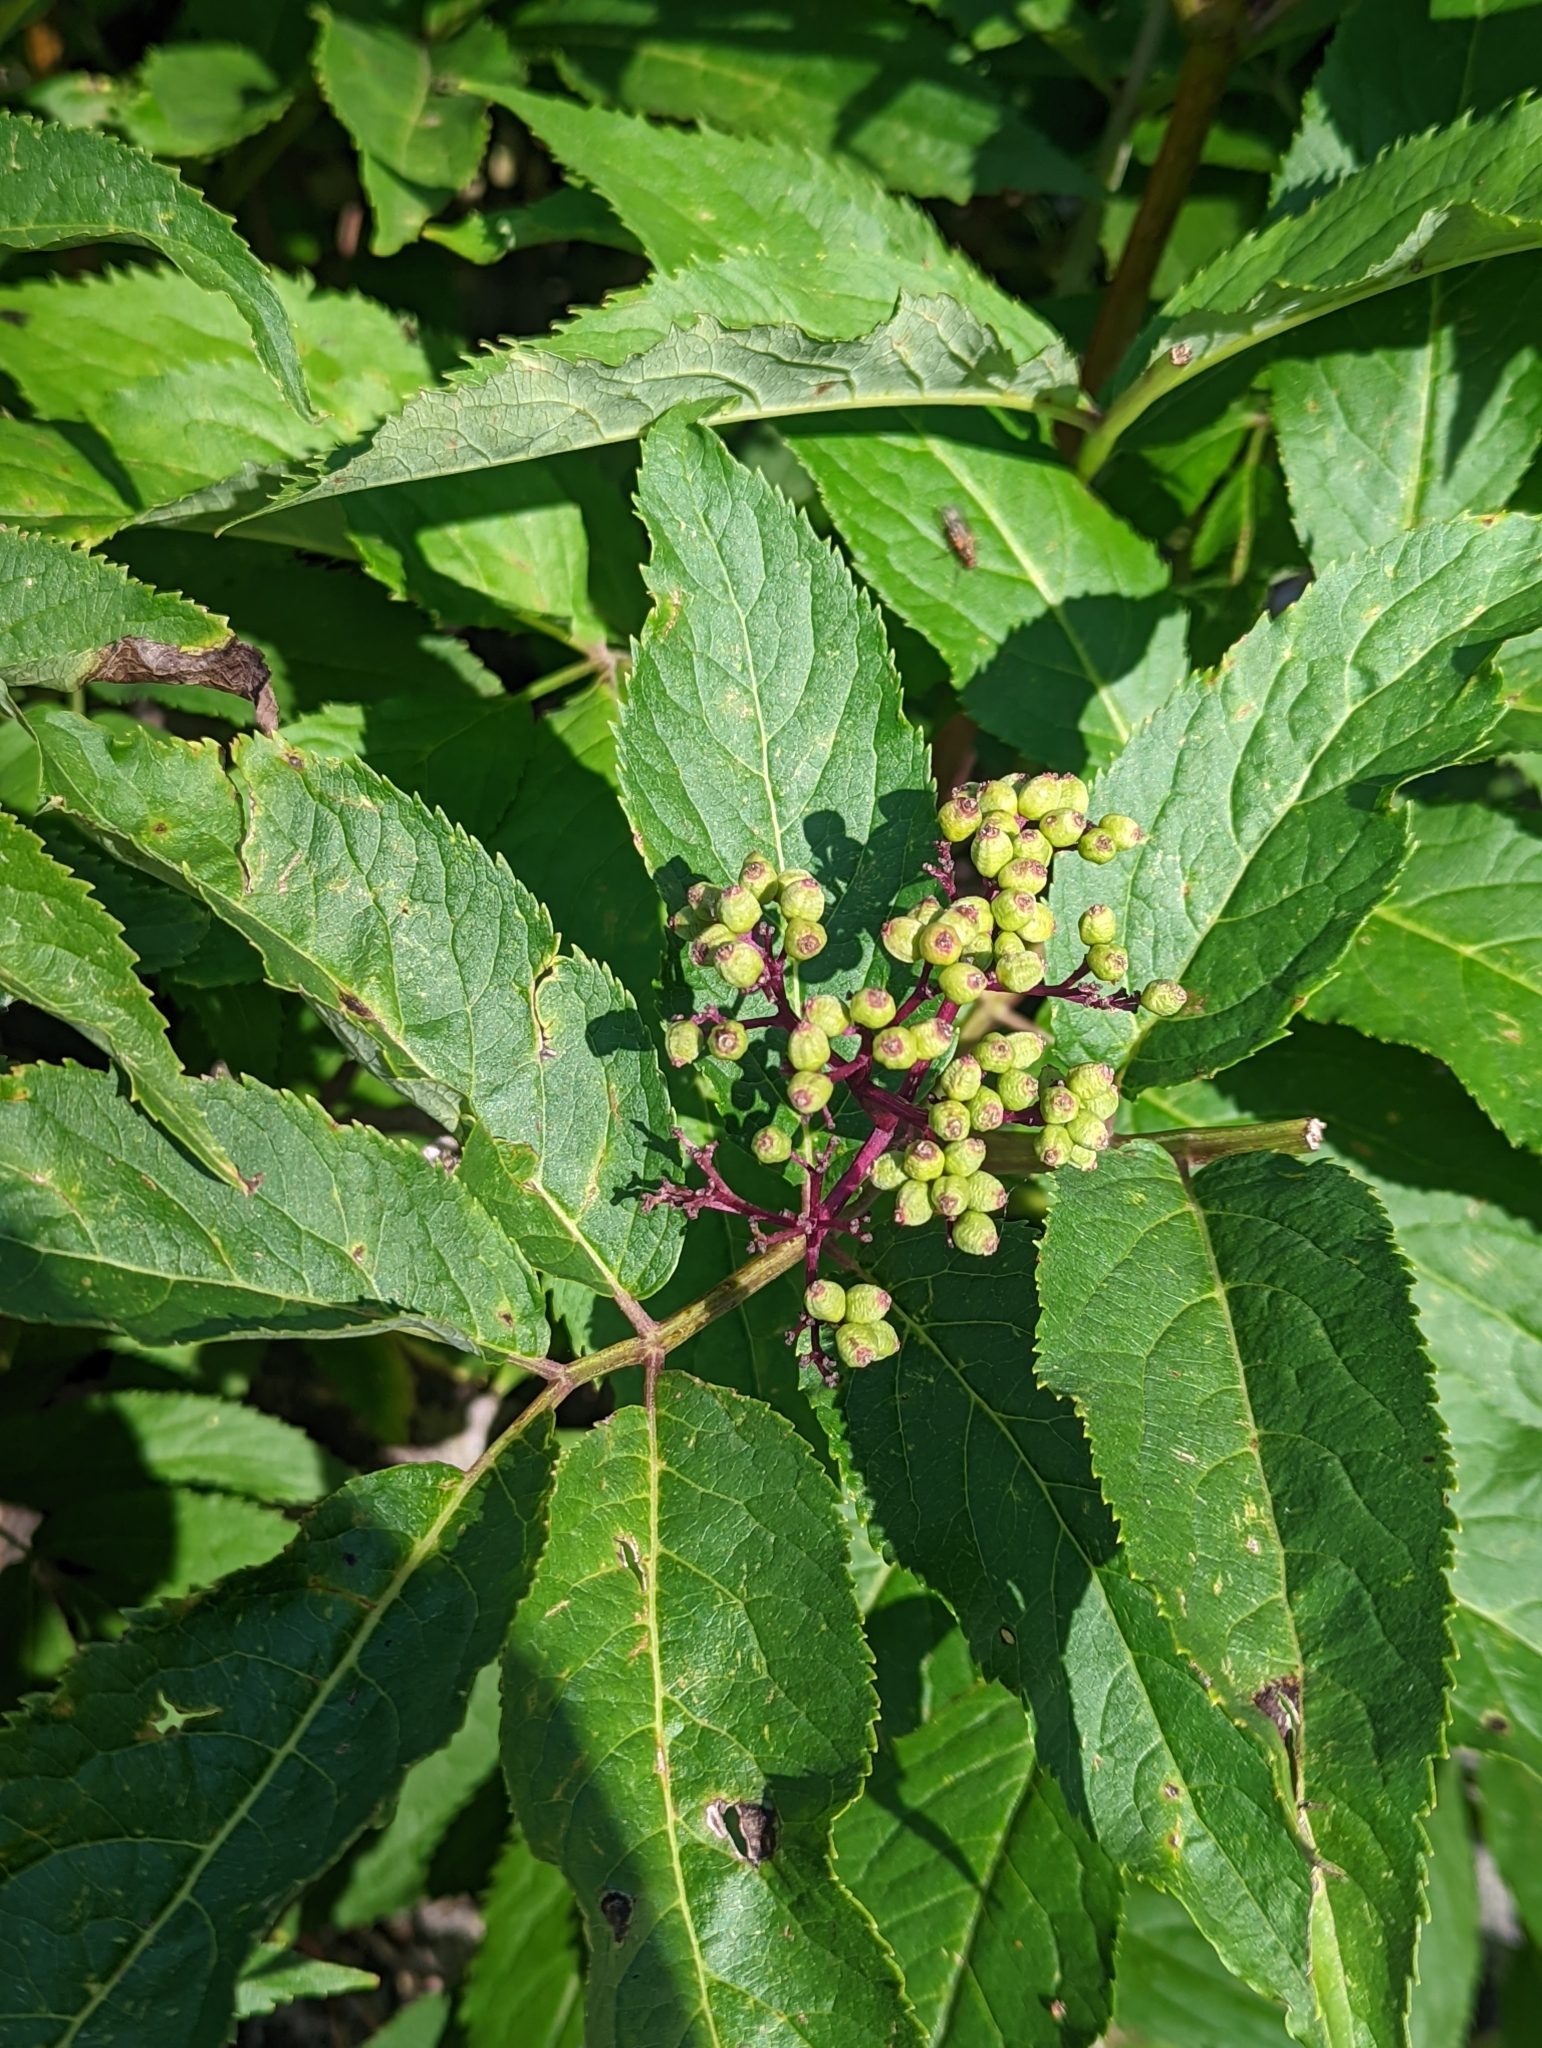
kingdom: Plantae
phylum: Tracheophyta
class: Magnoliopsida
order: Dipsacales
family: Viburnaceae
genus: Sambucus
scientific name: Sambucus racemosa
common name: Red-berried elder
